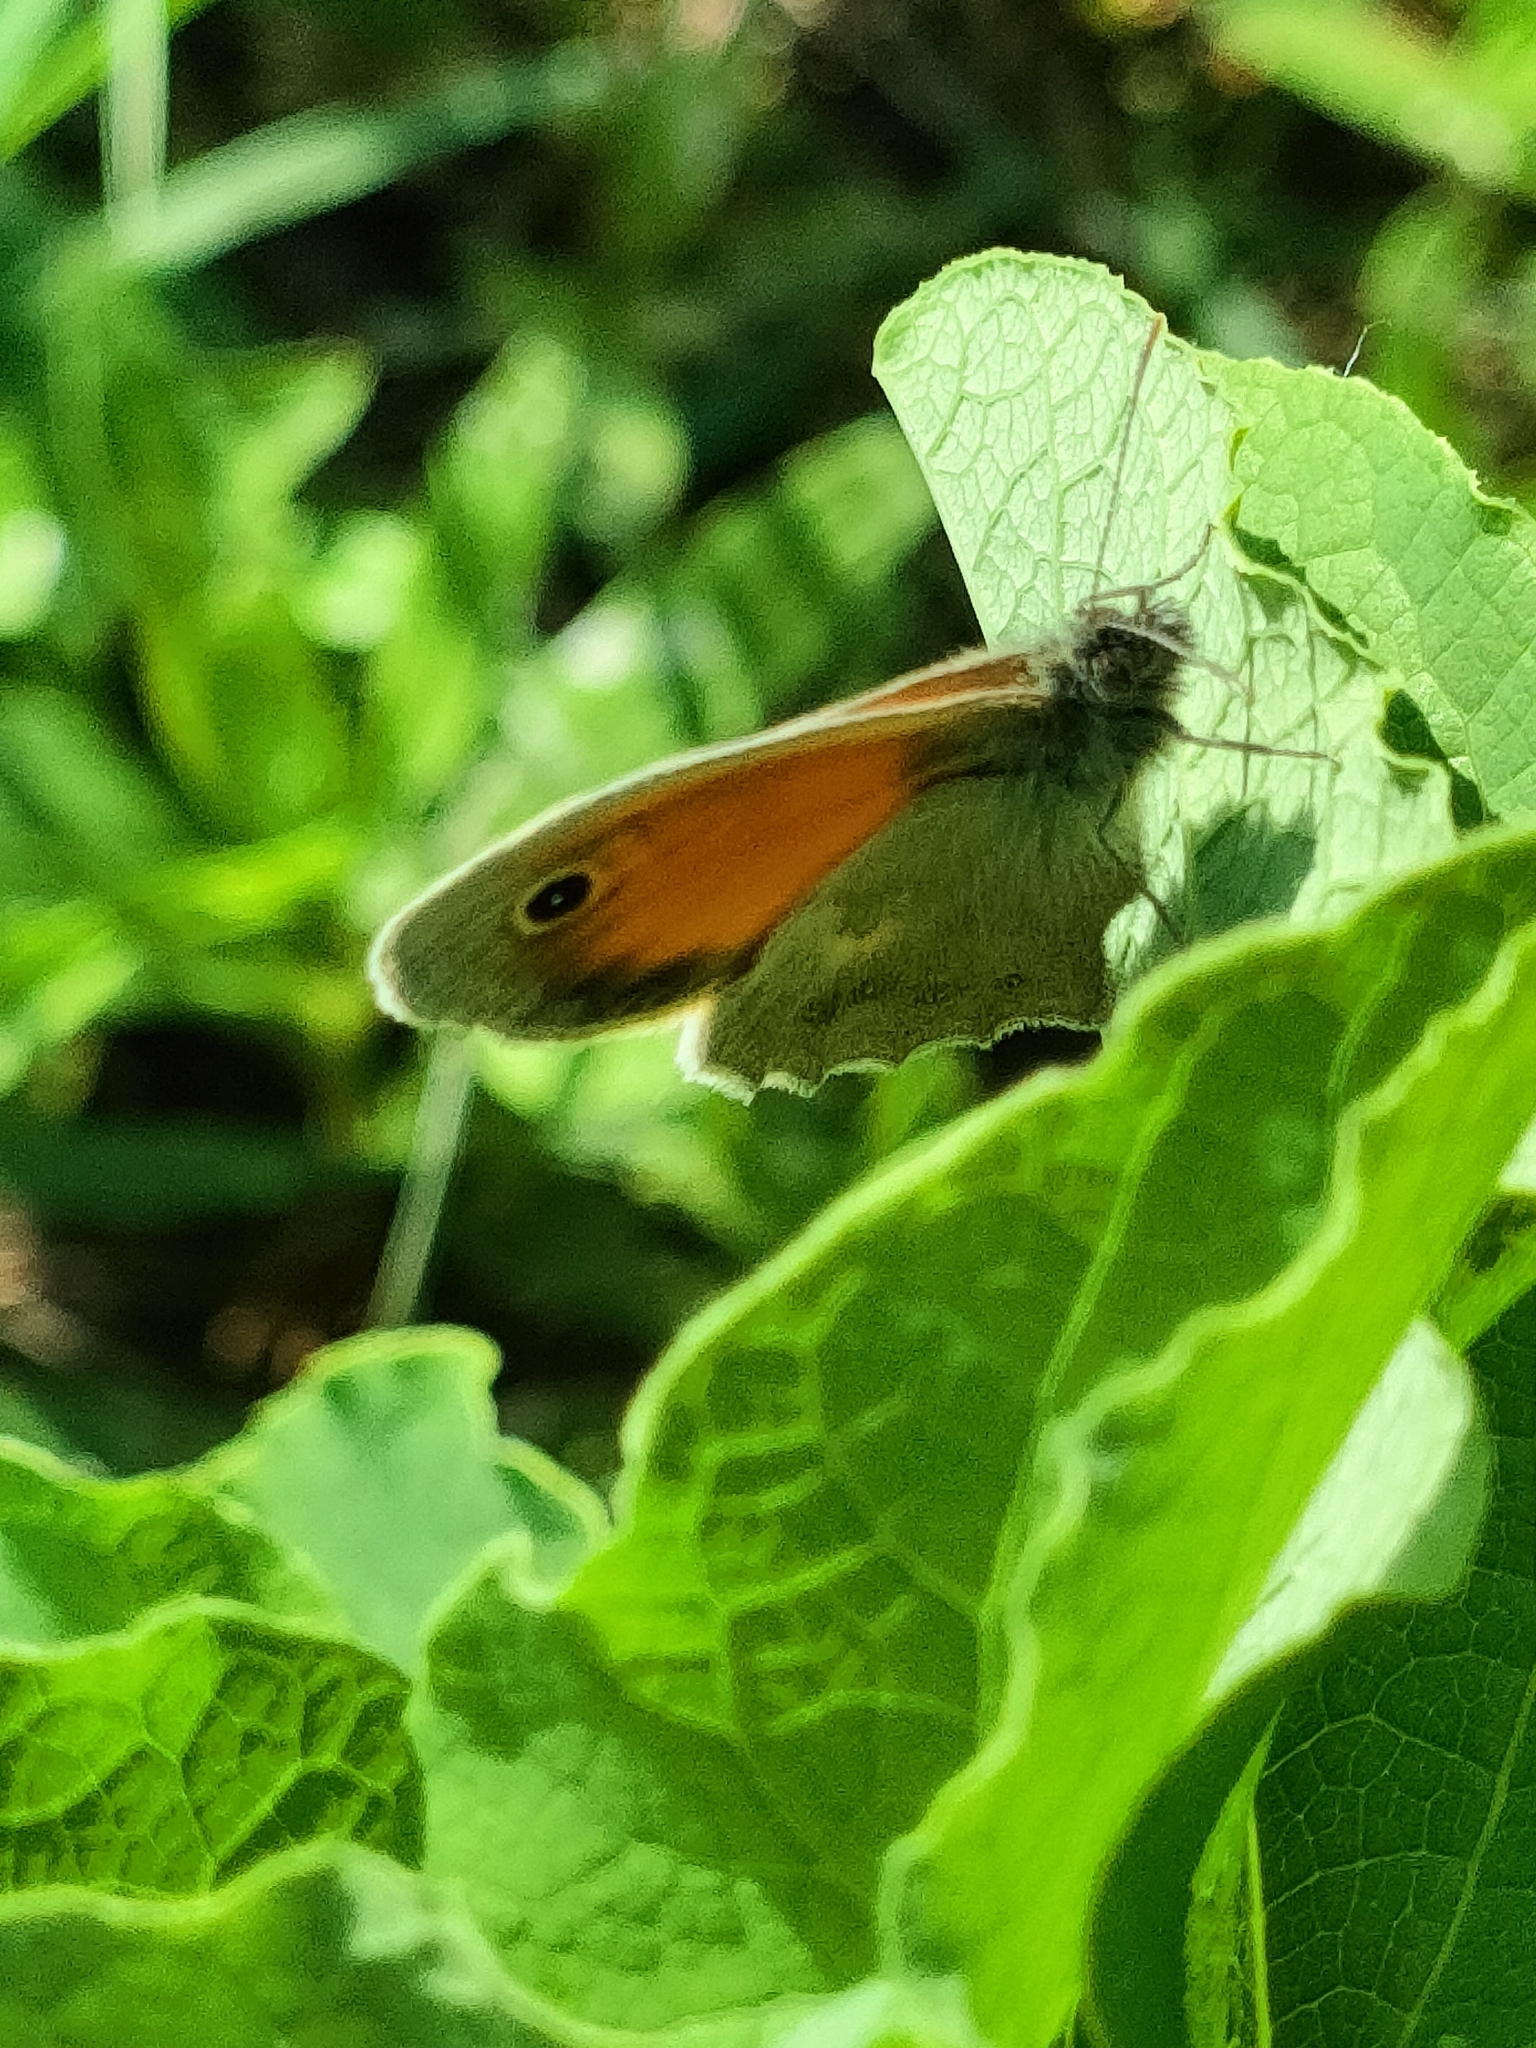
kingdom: Animalia
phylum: Arthropoda
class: Insecta
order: Lepidoptera
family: Nymphalidae
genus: Coenonympha
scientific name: Coenonympha pamphilus
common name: Small heath
